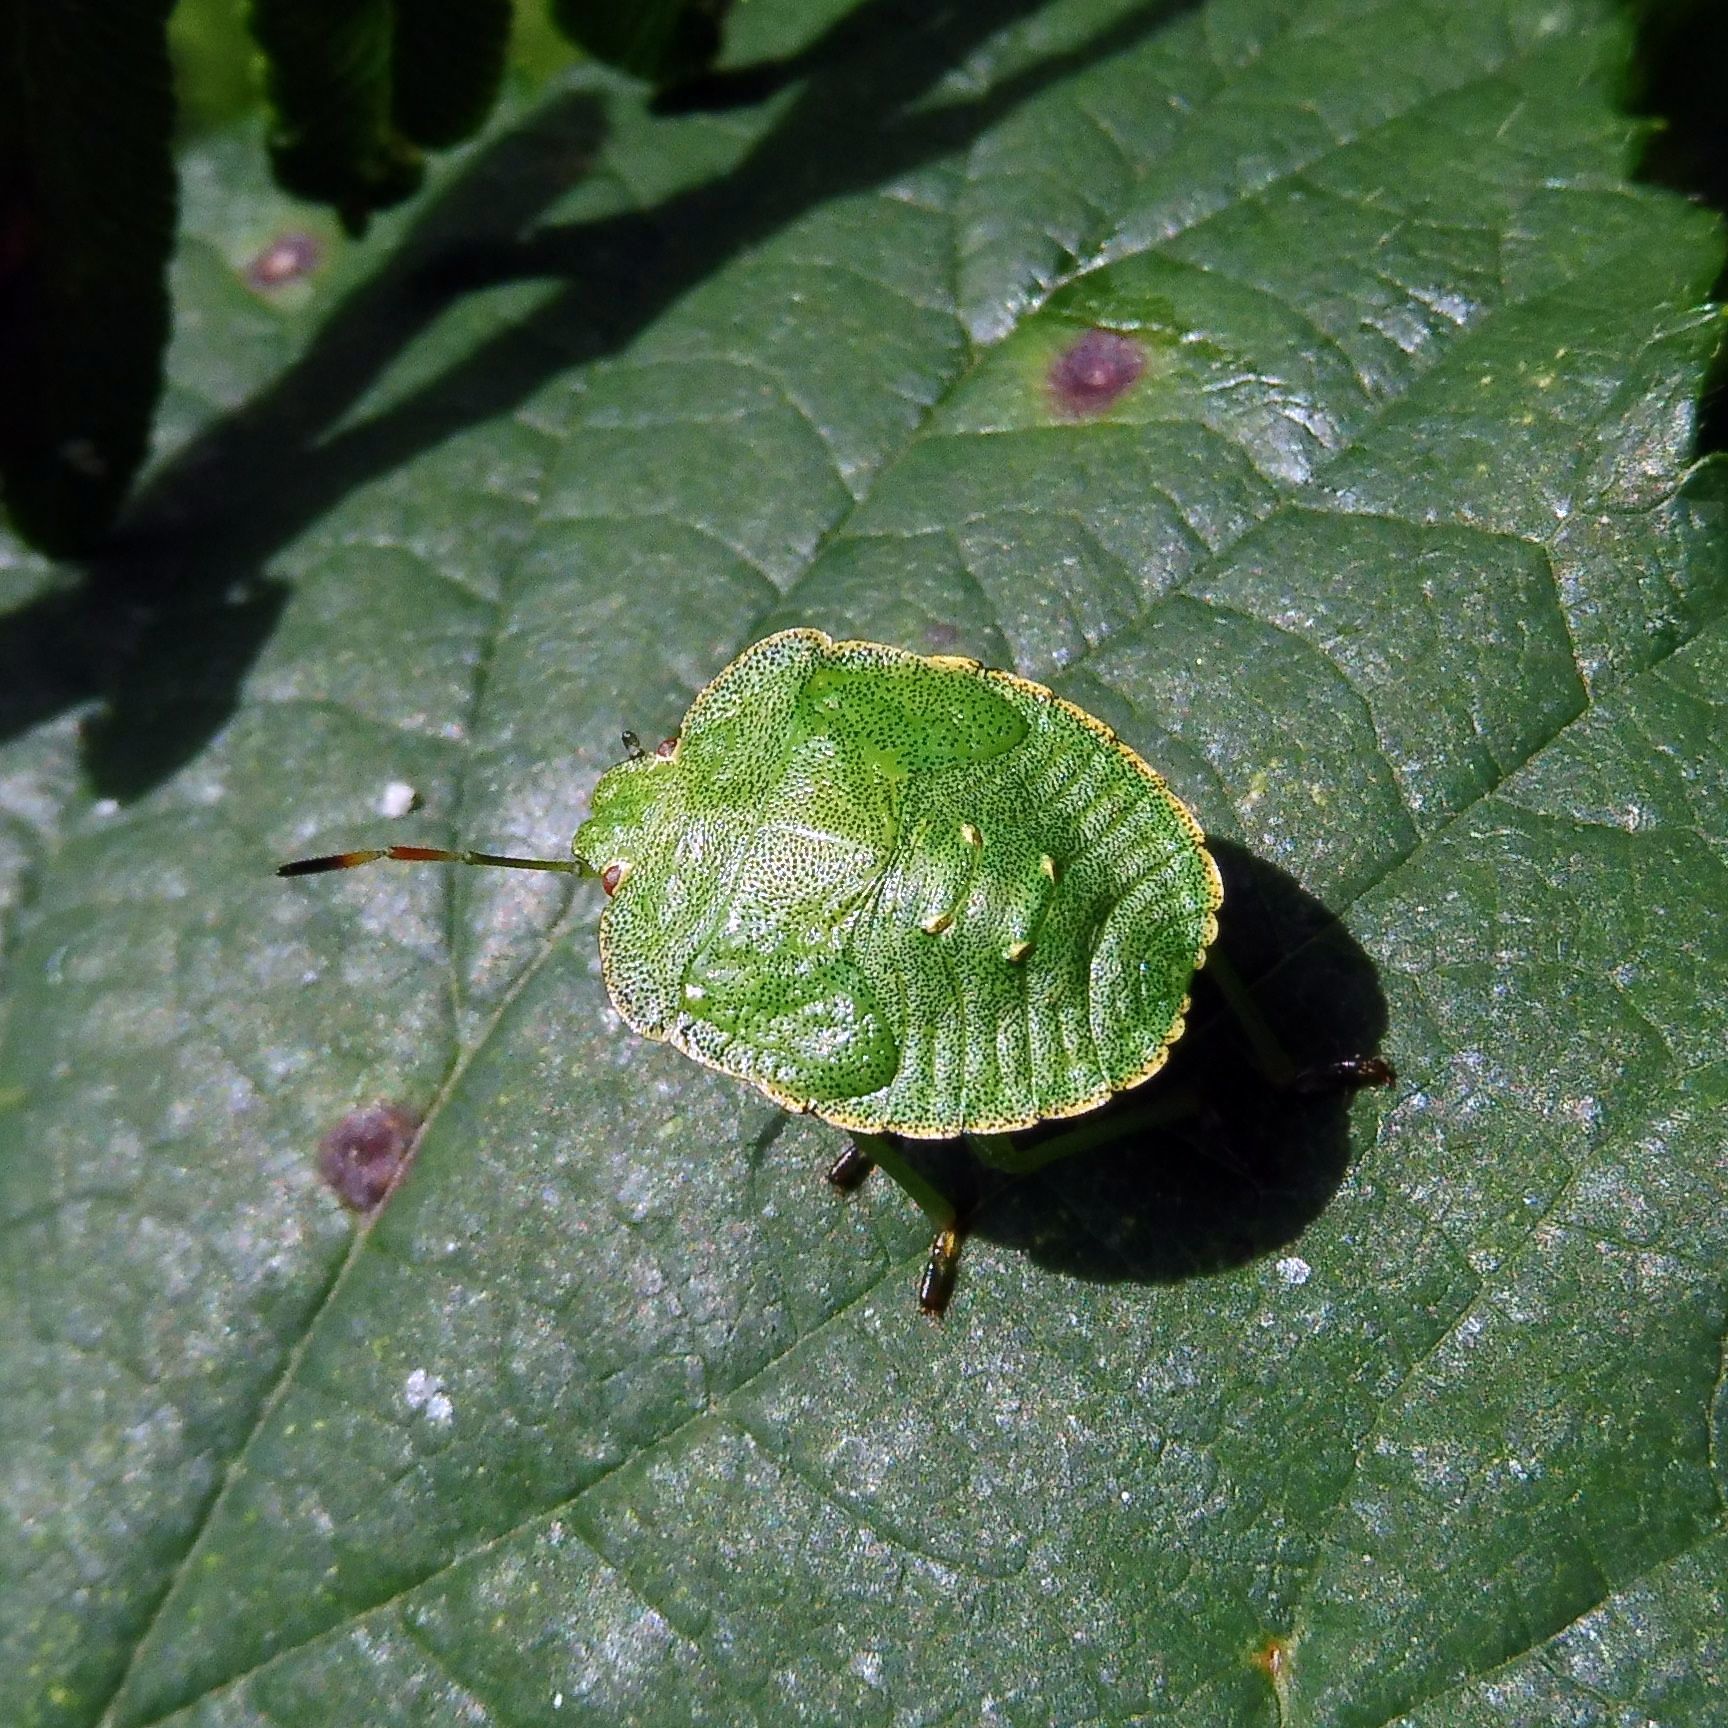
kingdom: Animalia
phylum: Arthropoda
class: Insecta
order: Hemiptera
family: Pentatomidae
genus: Palomena
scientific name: Palomena prasina
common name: Green shieldbug
